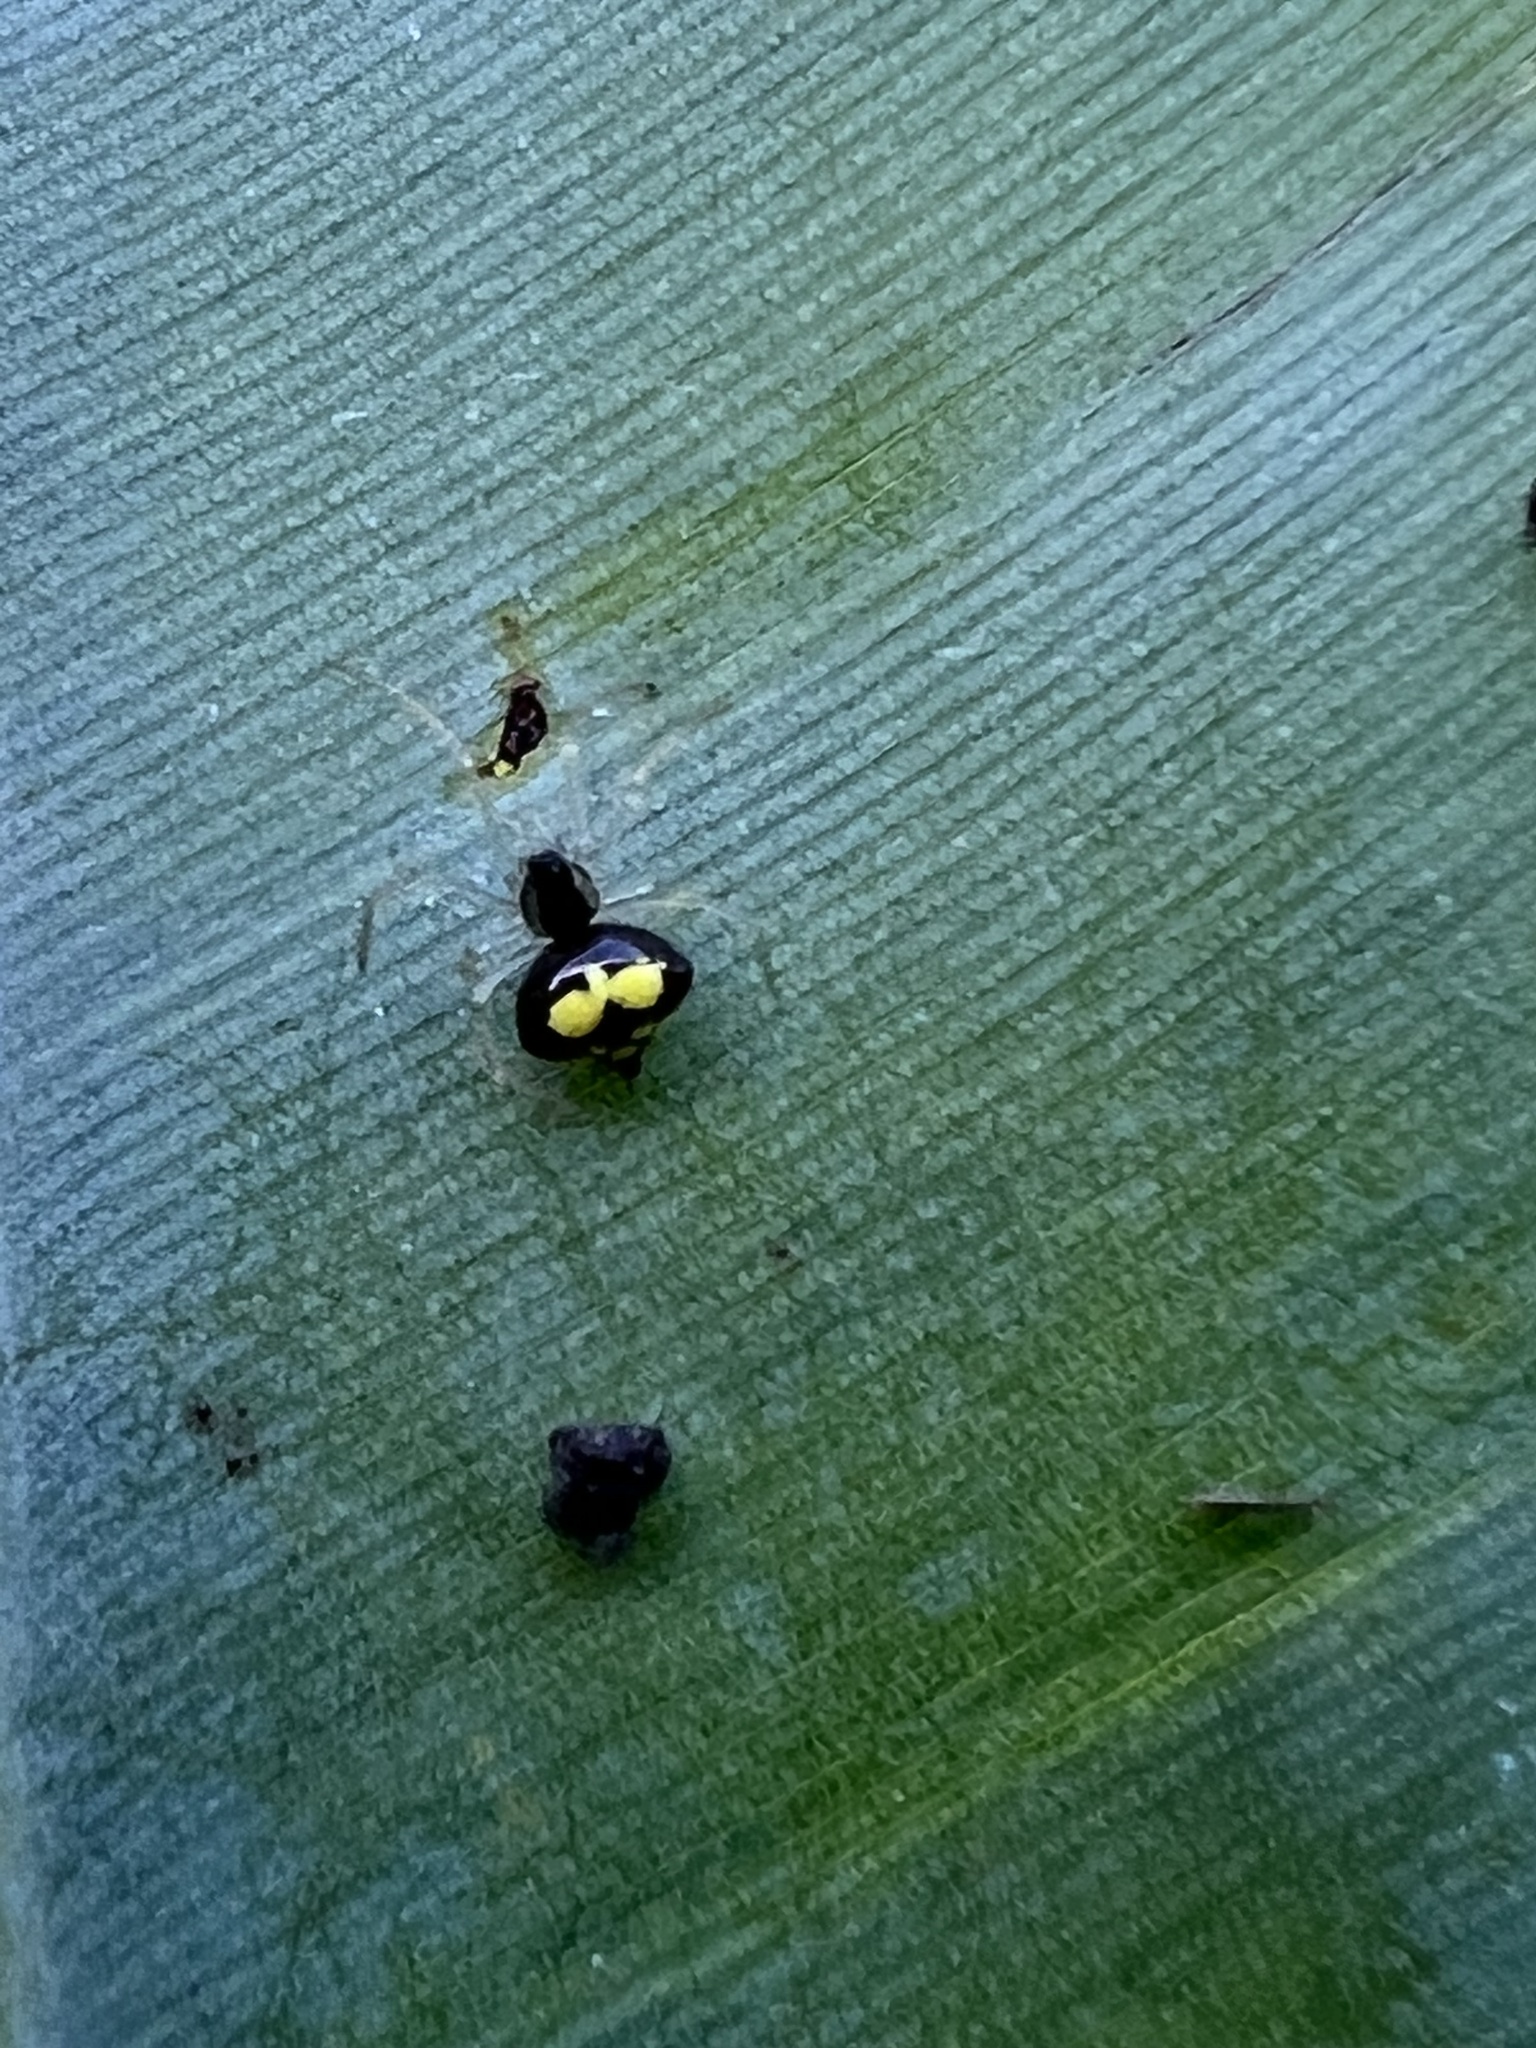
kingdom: Animalia
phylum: Arthropoda
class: Arachnida
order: Araneae
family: Theridiidae
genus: Theridula
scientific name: Theridula gonygaster
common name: Cobweb spiders
